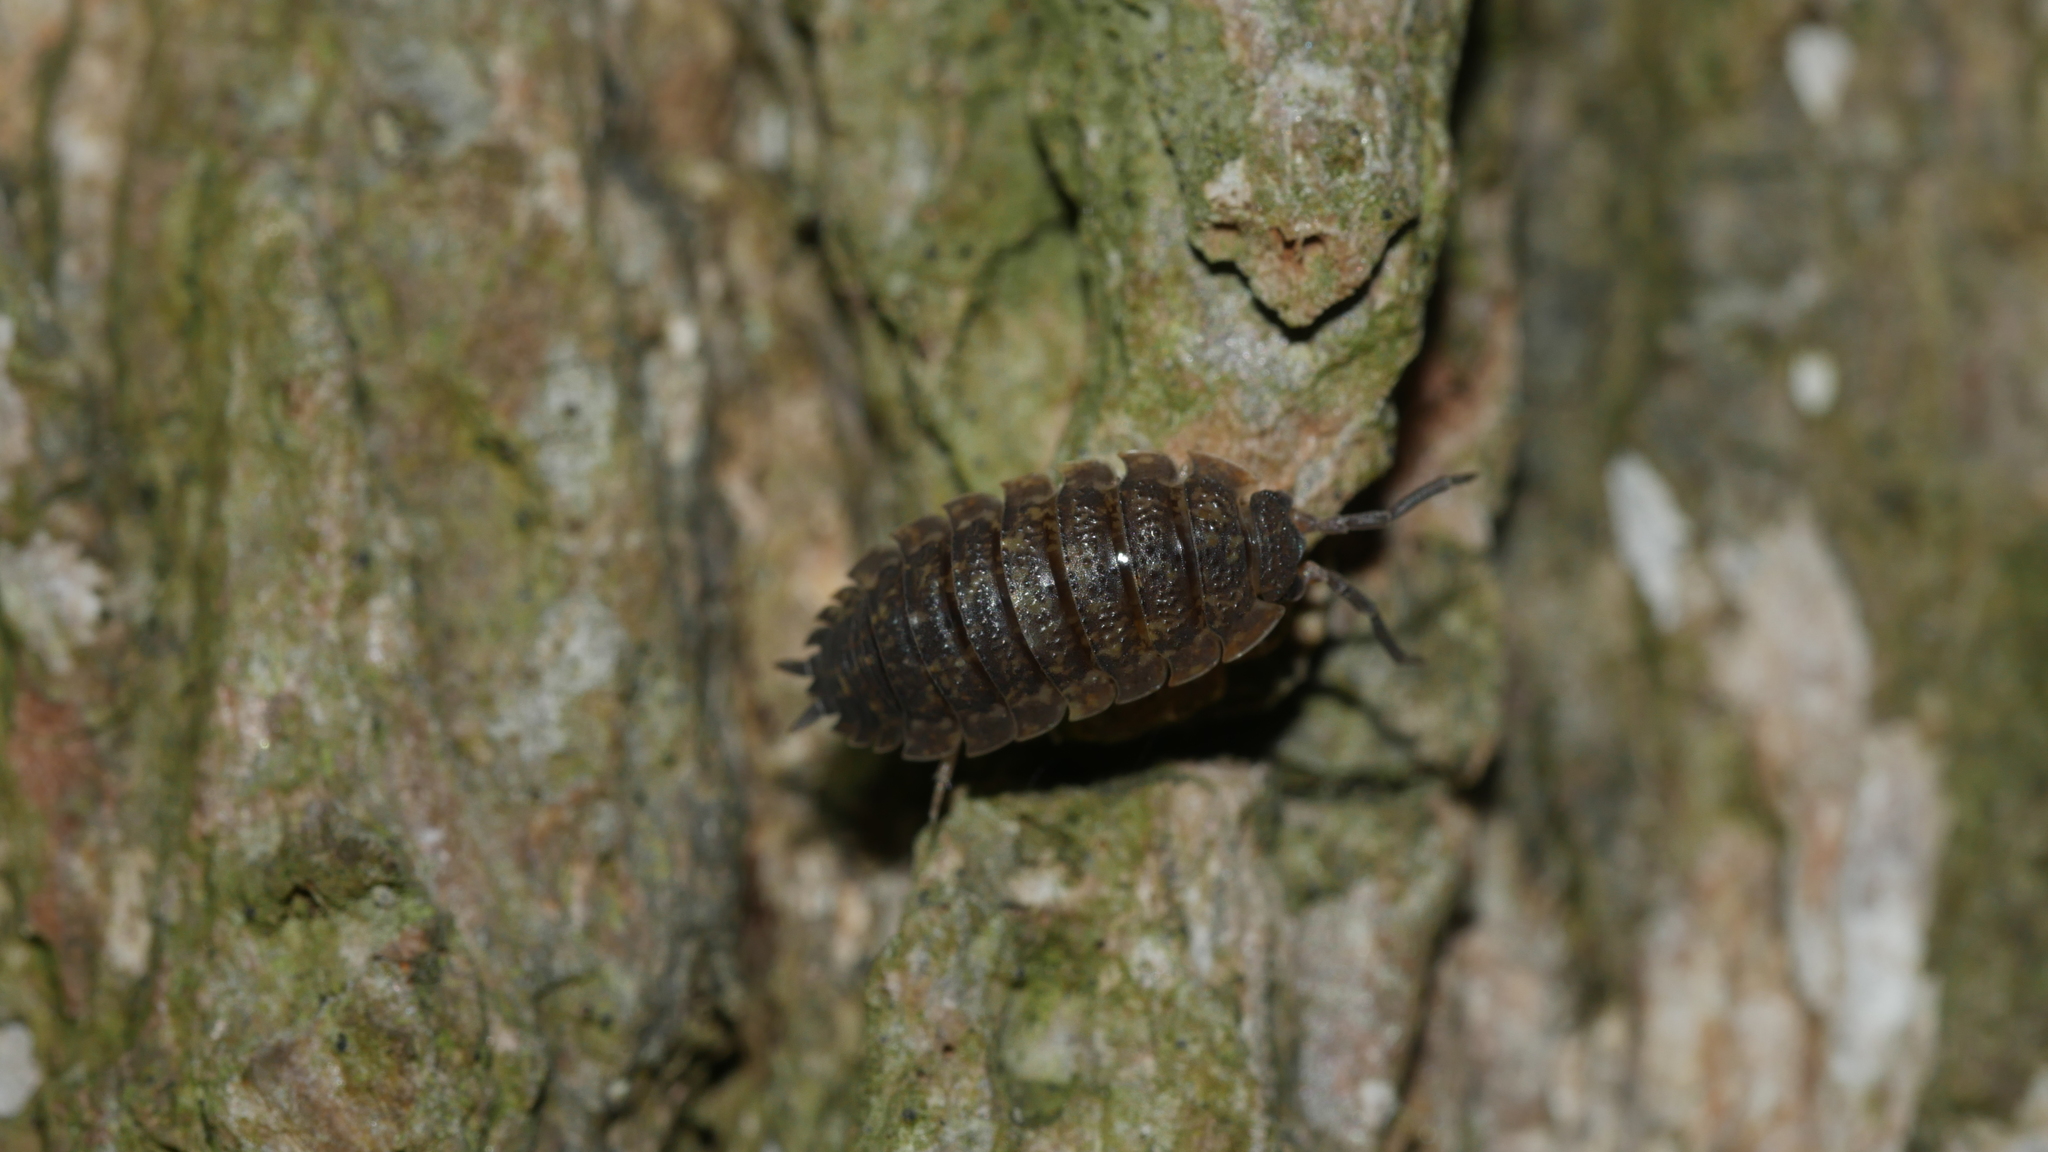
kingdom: Animalia
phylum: Arthropoda
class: Malacostraca
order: Isopoda
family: Porcellionidae
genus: Porcellio
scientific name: Porcellio scaber
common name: Common rough woodlouse
